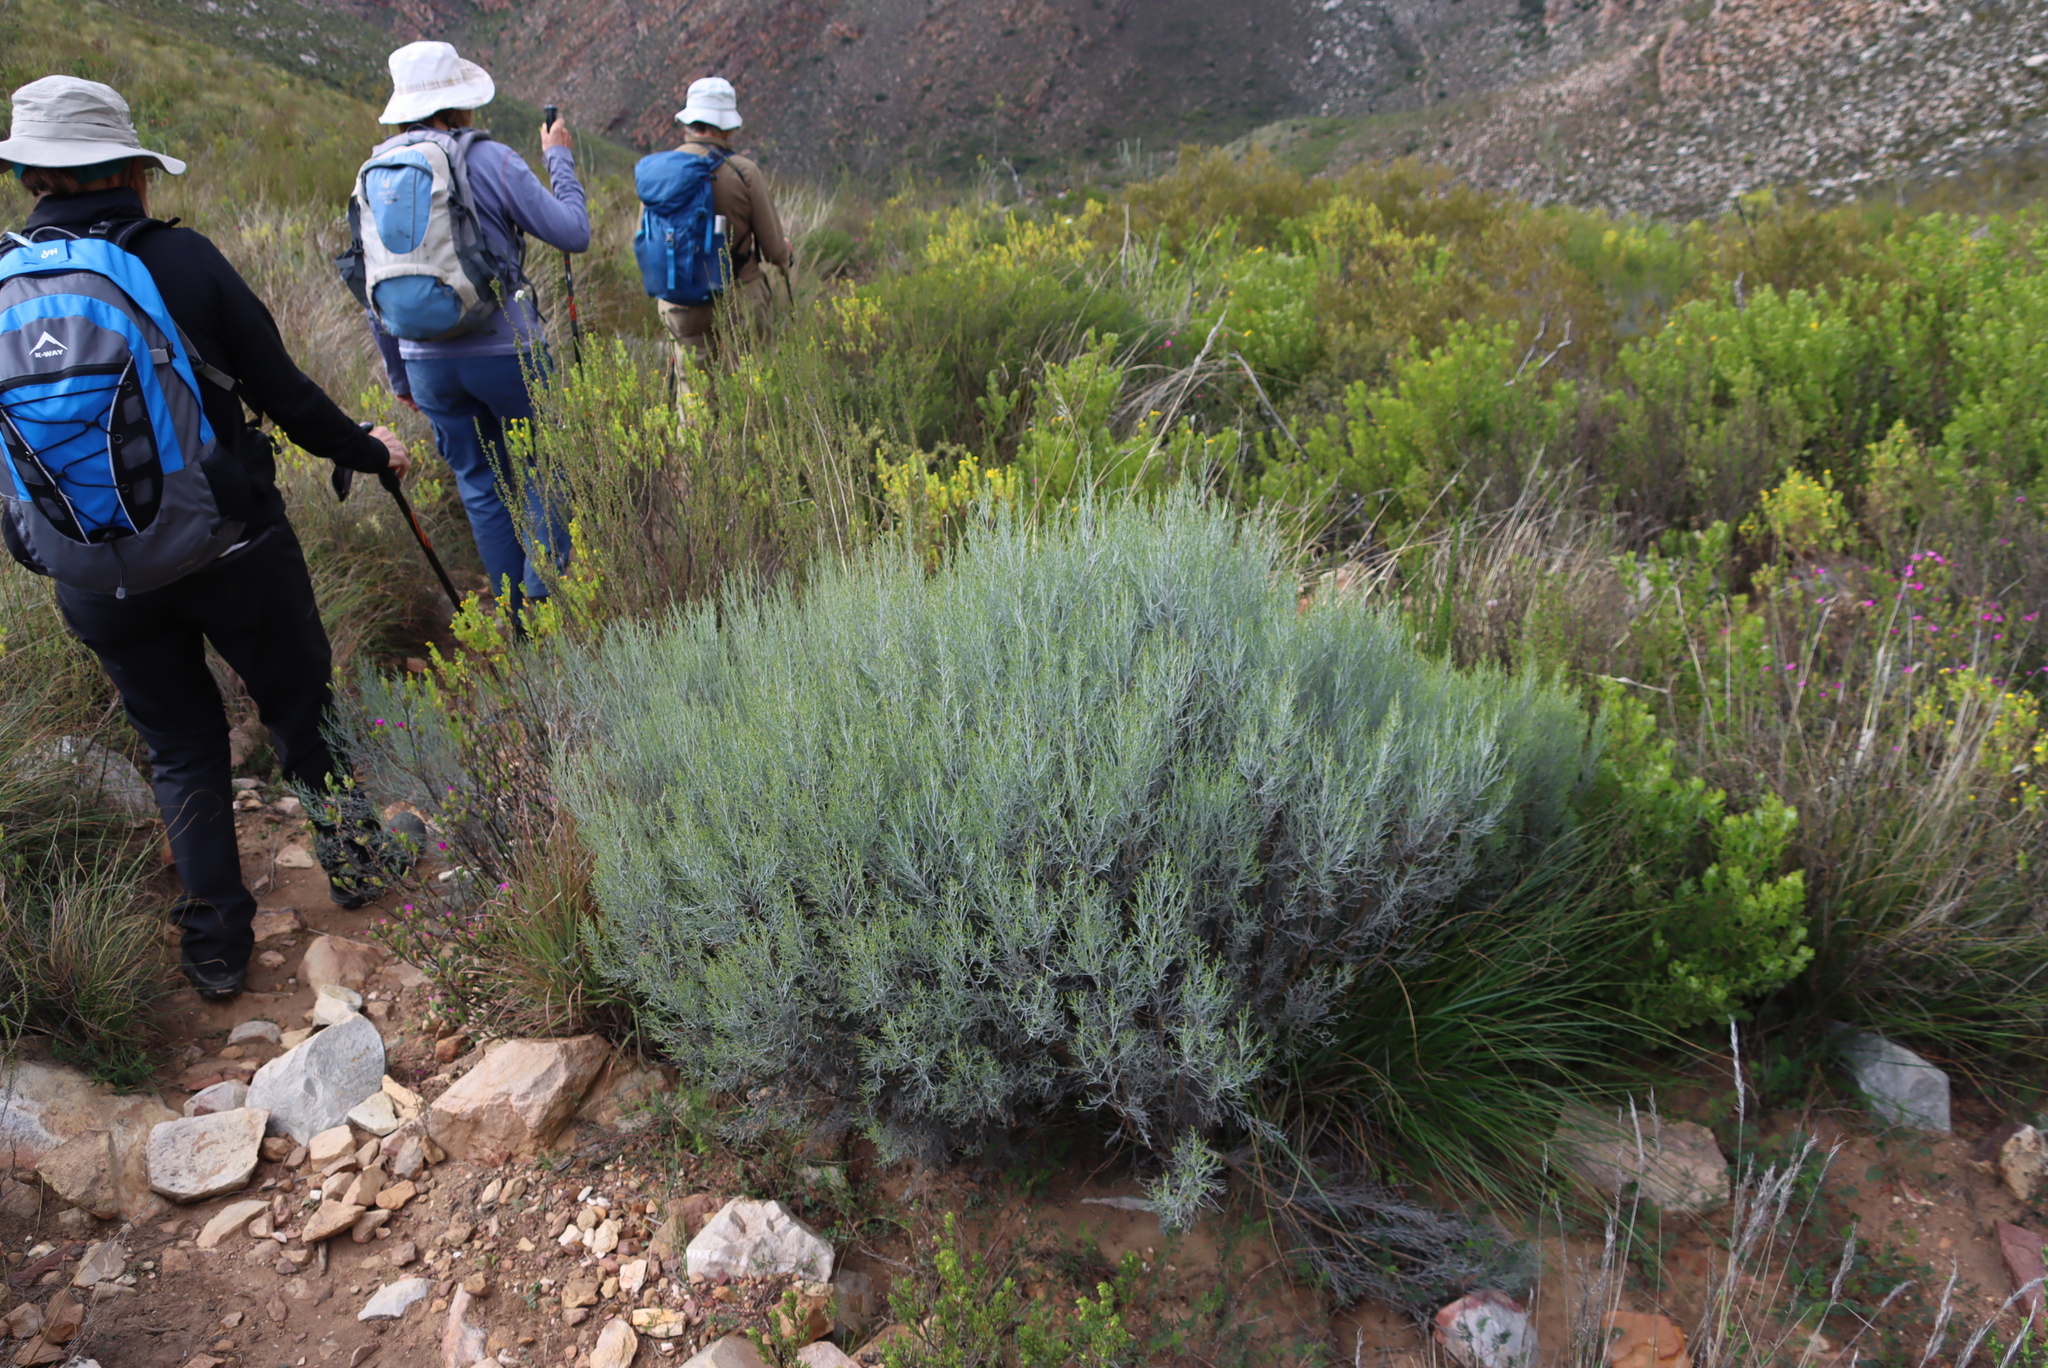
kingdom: Plantae
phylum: Tracheophyta
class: Magnoliopsida
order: Asterales
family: Asteraceae
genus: Dicerothamnus
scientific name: Dicerothamnus rhinocerotis
